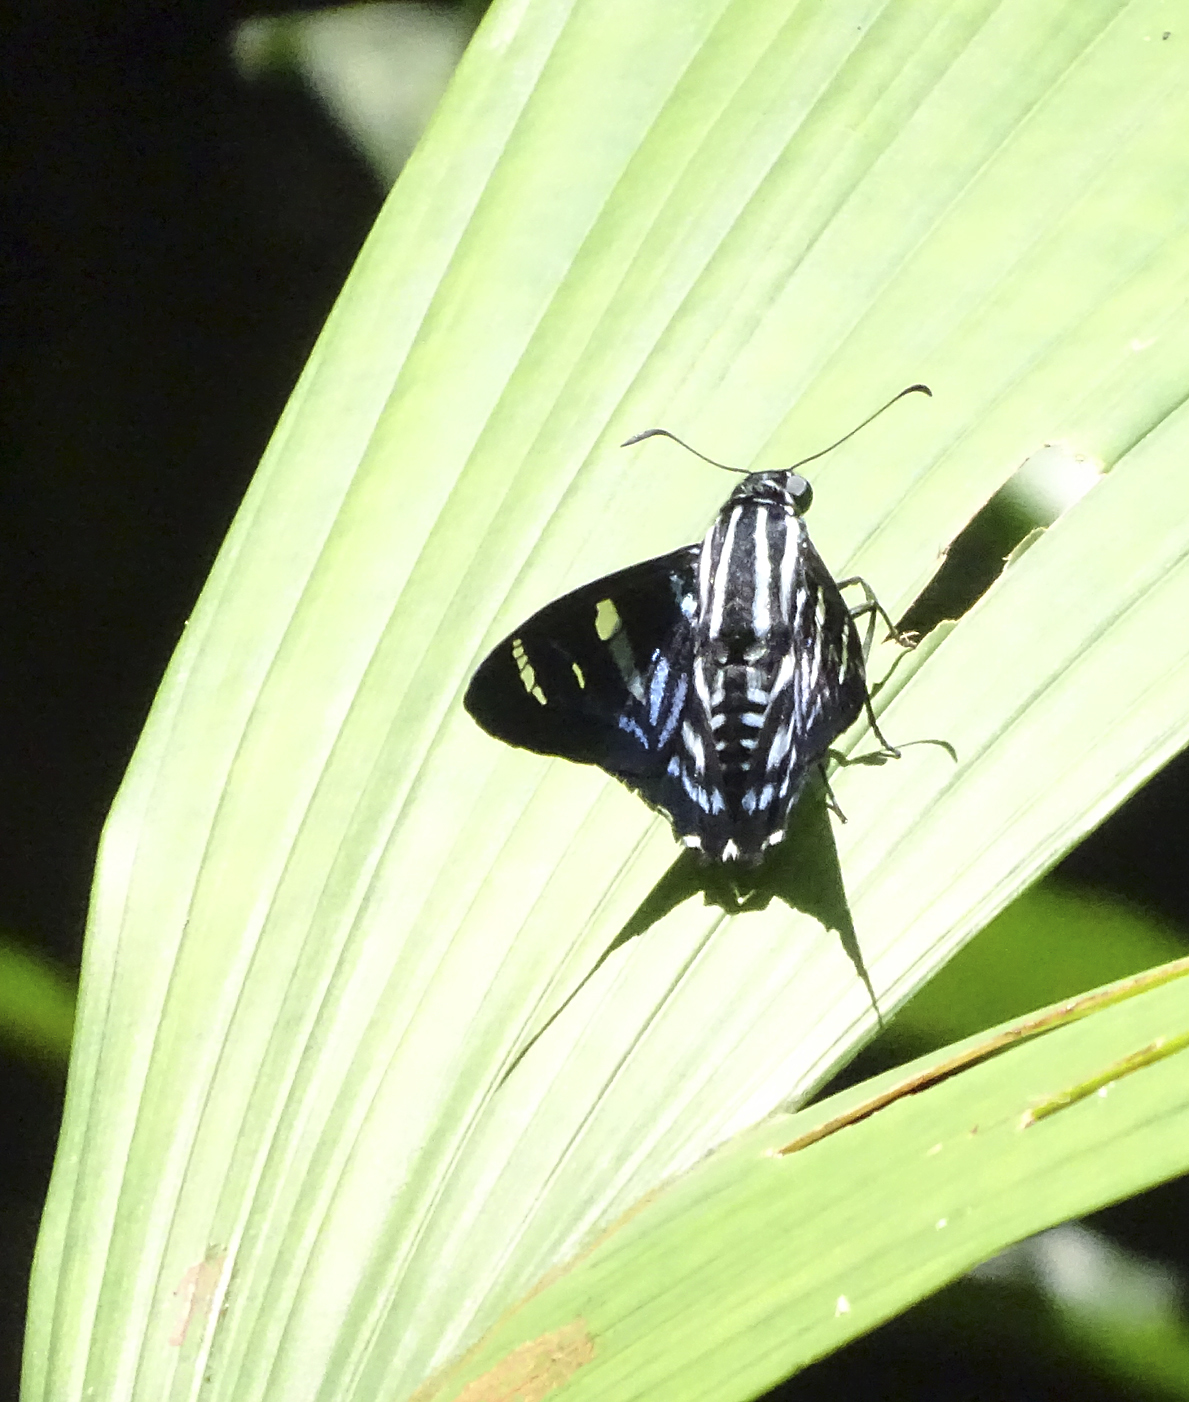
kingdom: Animalia
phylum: Arthropoda
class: Insecta
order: Lepidoptera
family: Hesperiidae
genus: Jemadia
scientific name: Jemadia pseudognetus
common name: Dot-collared firetip
